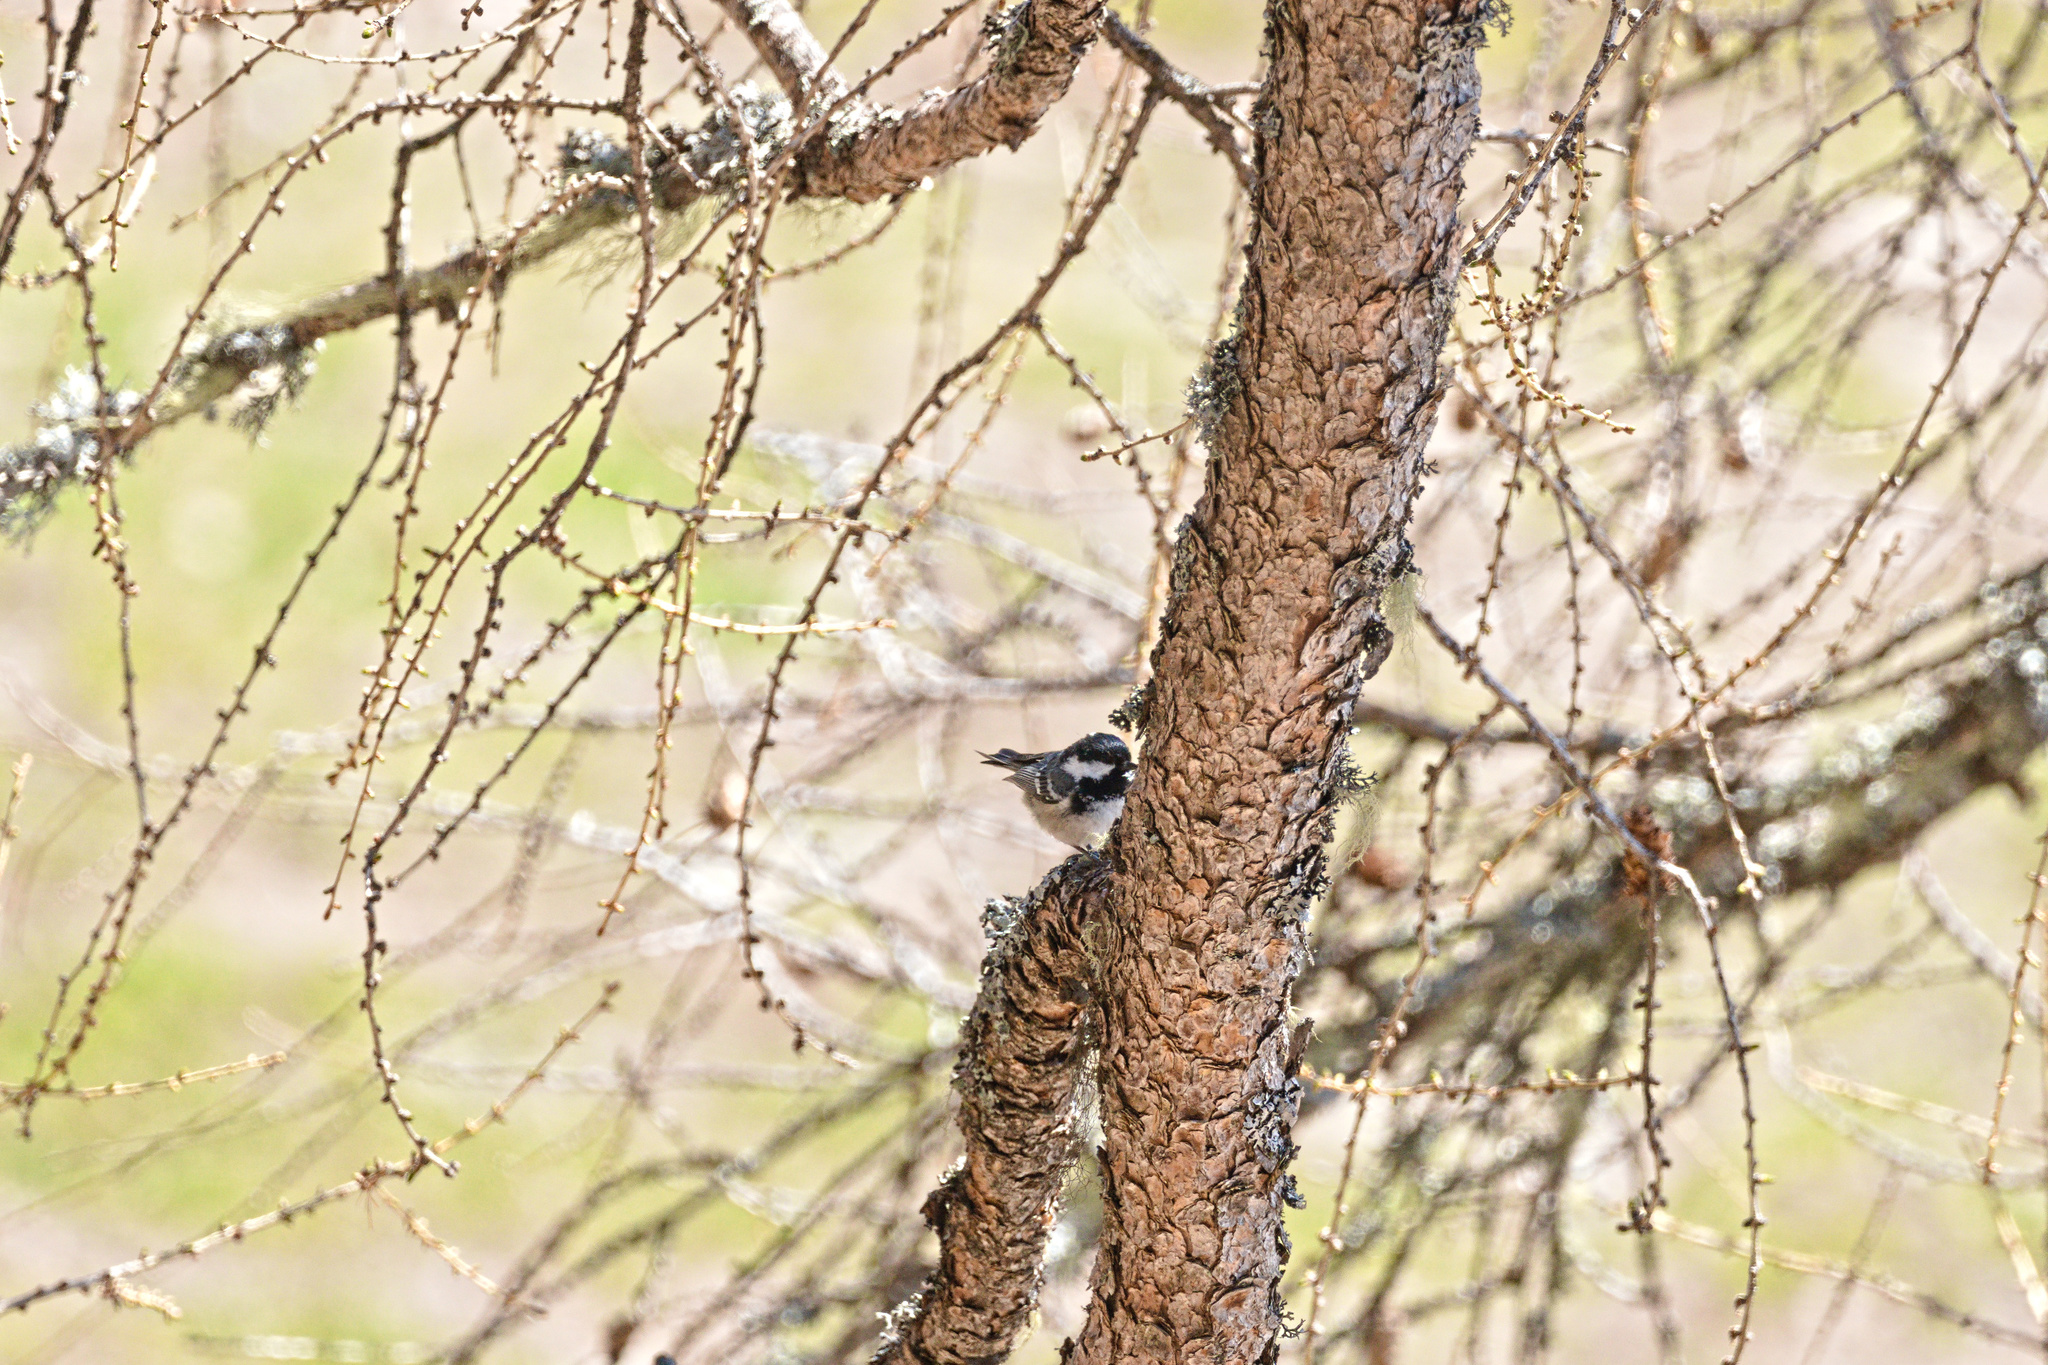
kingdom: Animalia
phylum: Chordata
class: Aves
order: Passeriformes
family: Paridae
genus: Periparus
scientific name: Periparus ater
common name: Coal tit
